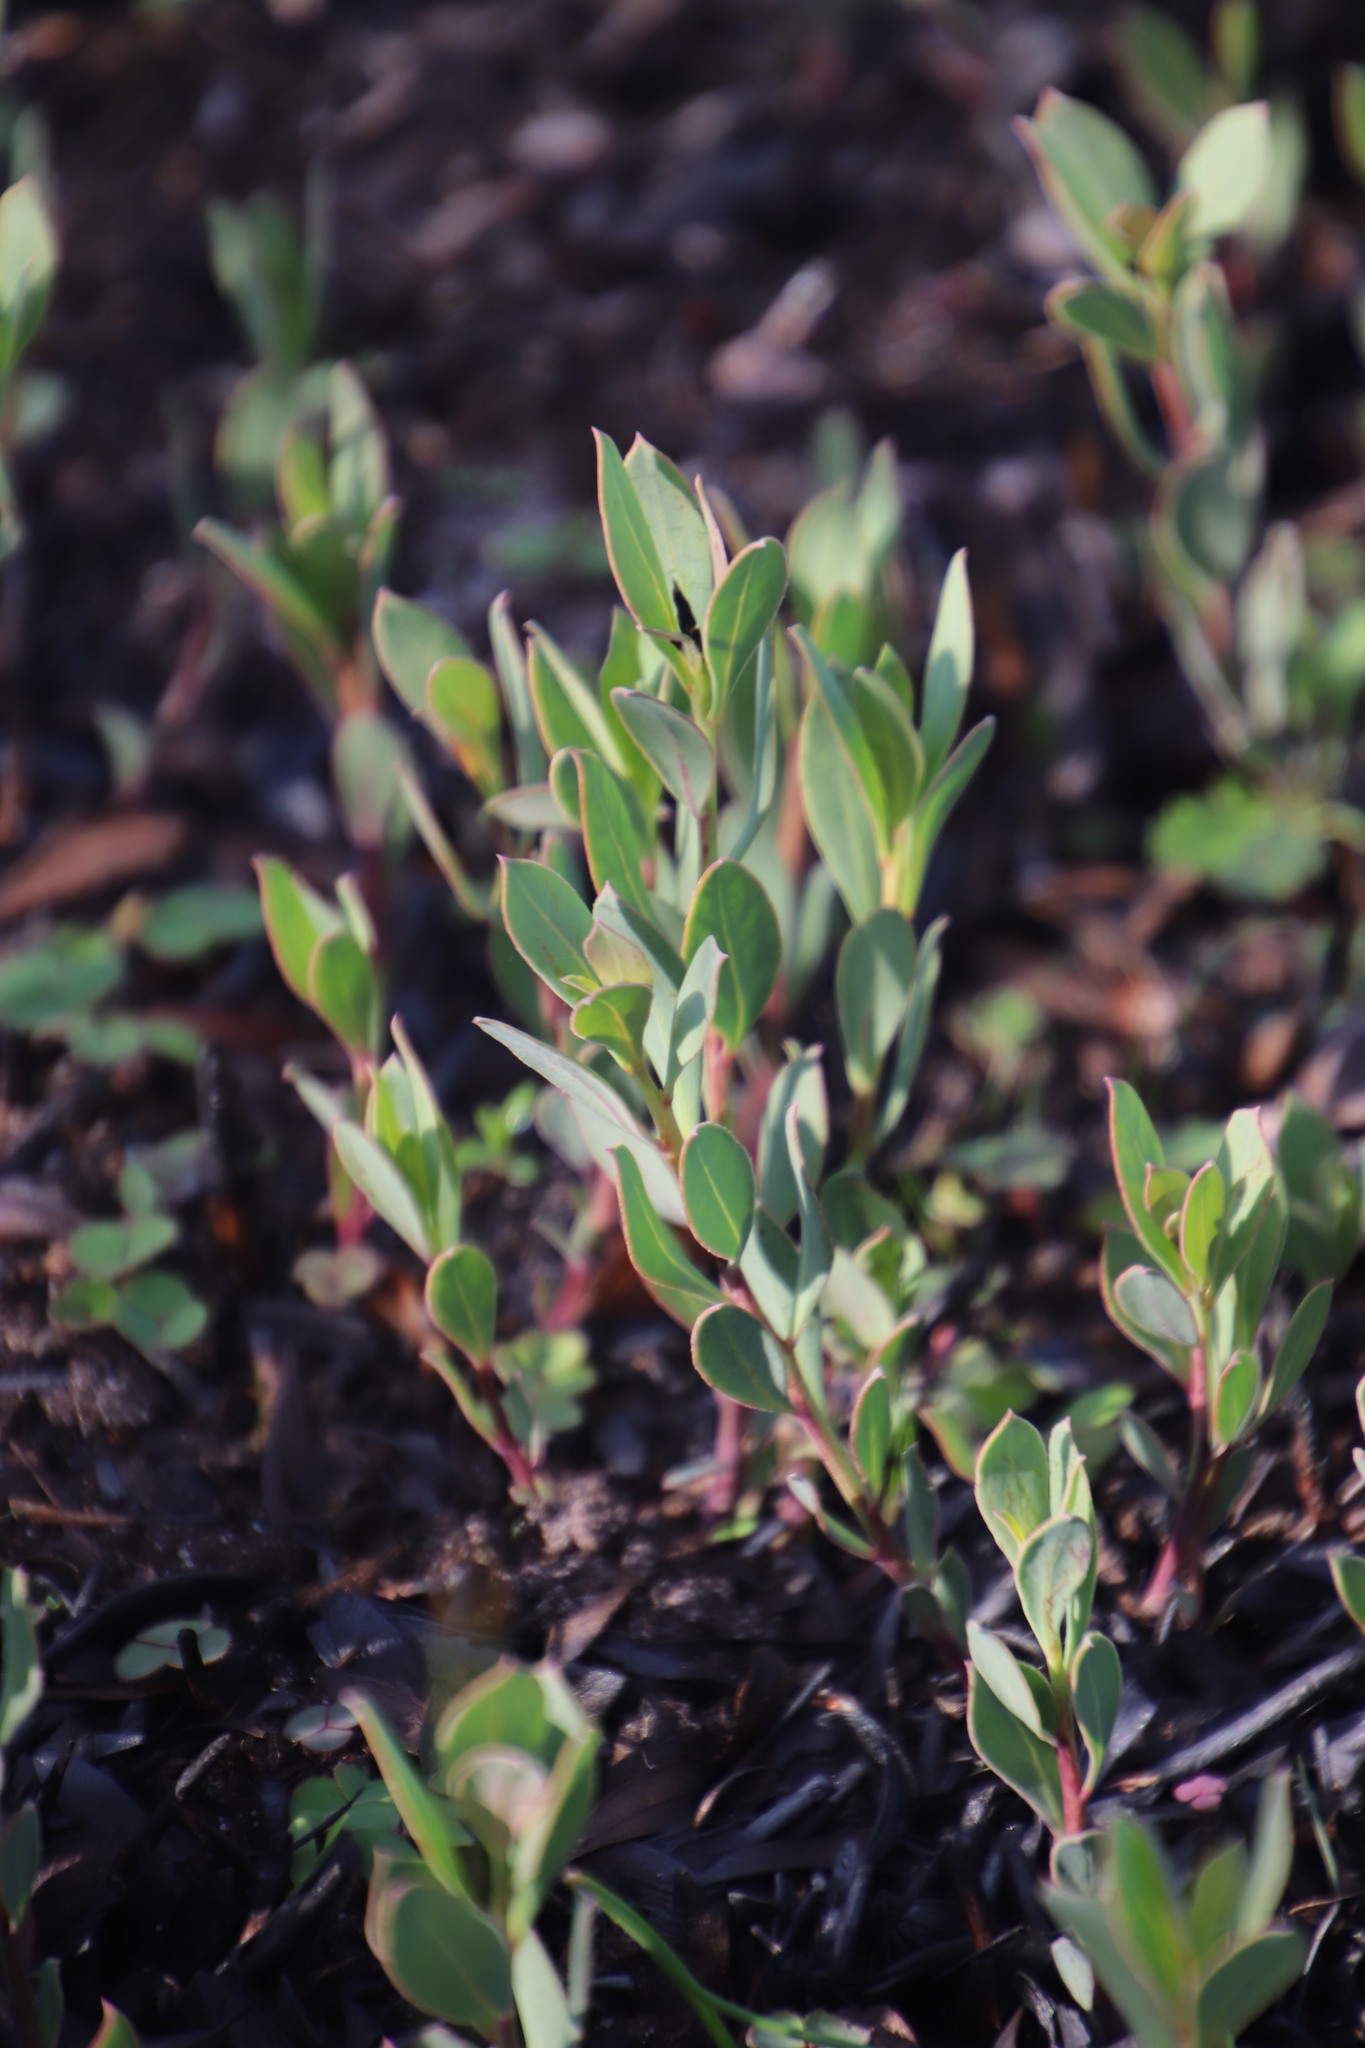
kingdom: Plantae
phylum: Tracheophyta
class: Magnoliopsida
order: Fabales
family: Fabaceae
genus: Rafnia
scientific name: Rafnia capensis
